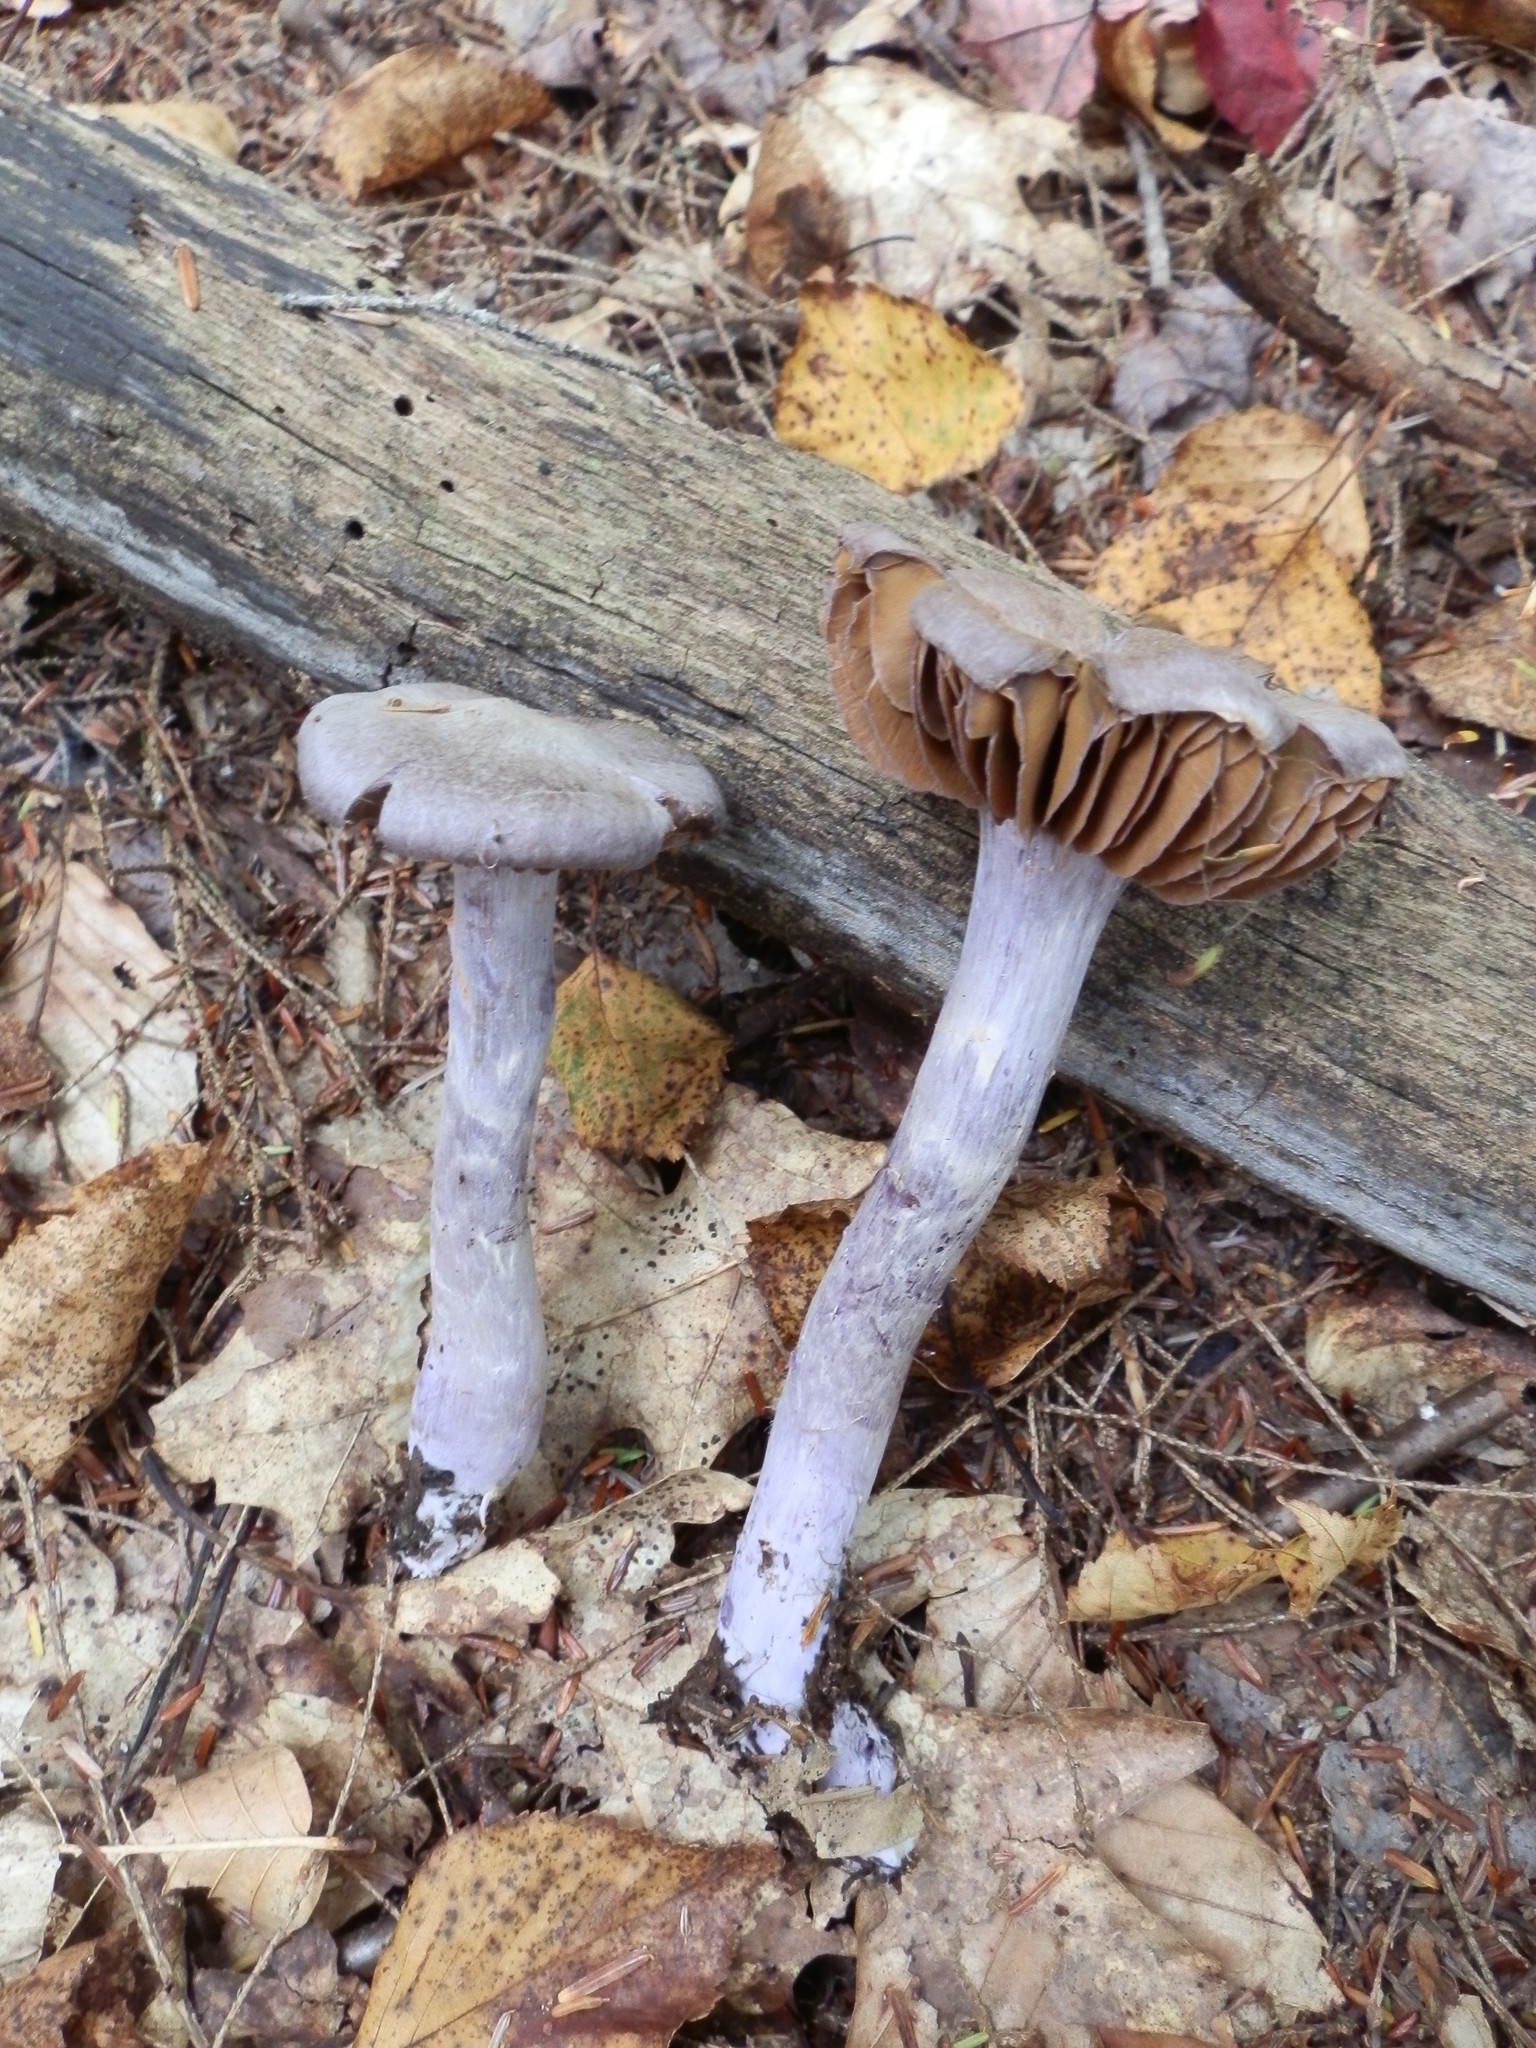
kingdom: Fungi
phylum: Basidiomycota
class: Agaricomycetes
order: Agaricales
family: Cortinariaceae
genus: Cortinarius
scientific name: Cortinarius anomalus
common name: Variable webcap
